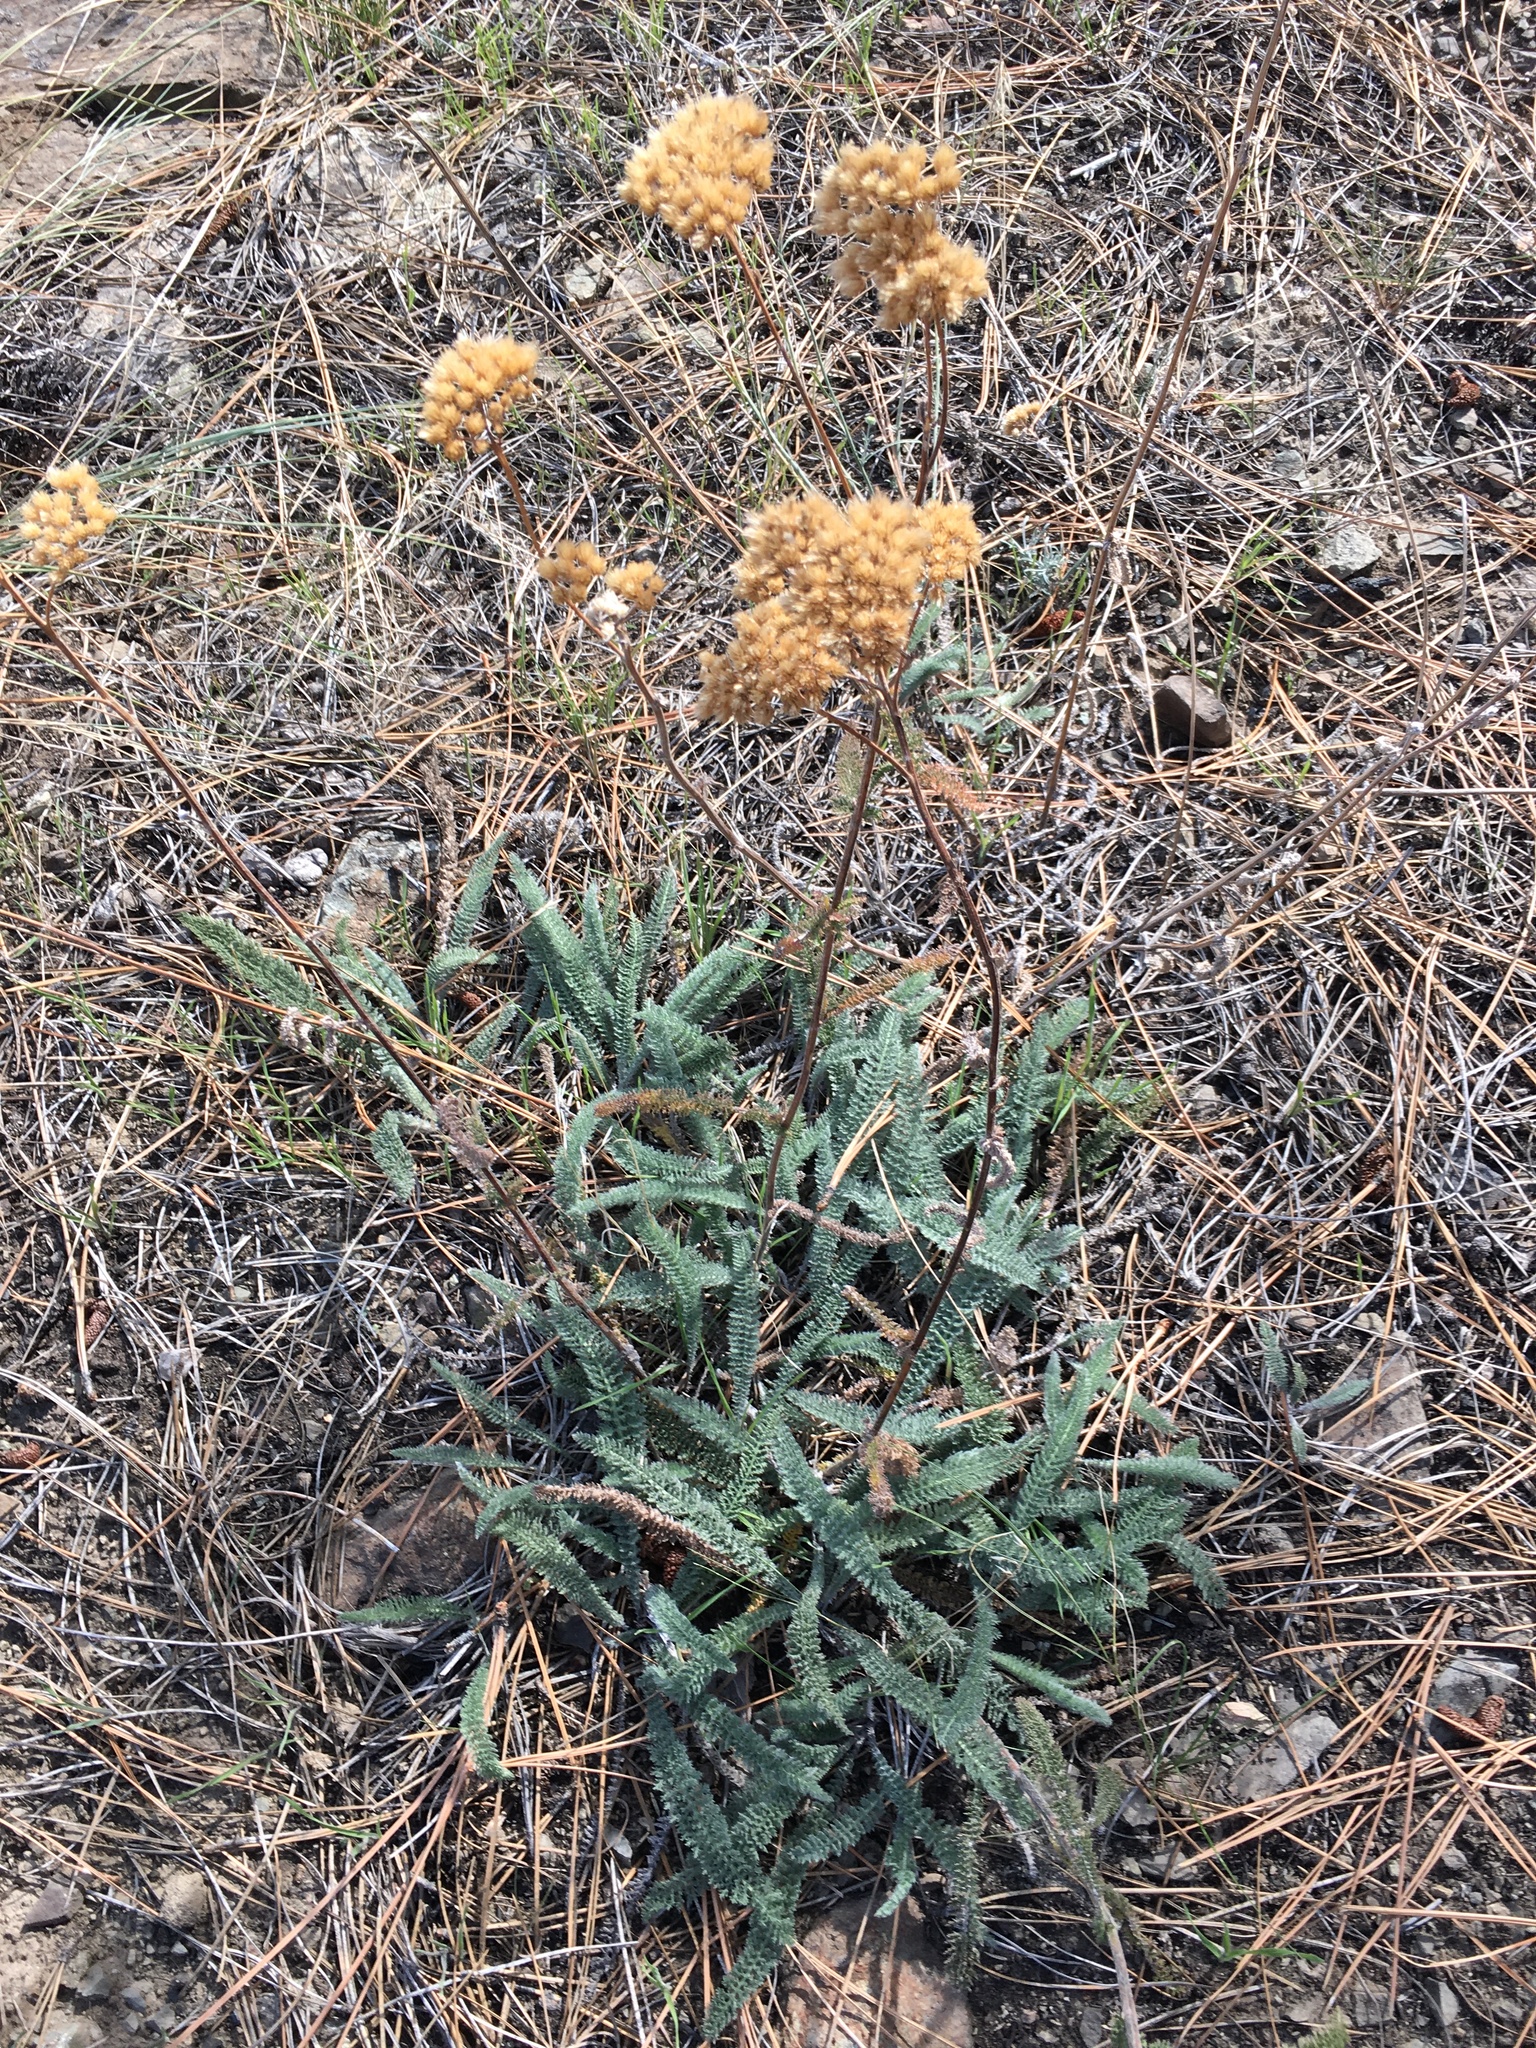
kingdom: Plantae
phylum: Tracheophyta
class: Magnoliopsida
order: Asterales
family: Asteraceae
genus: Achillea
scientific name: Achillea millefolium
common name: Yarrow
